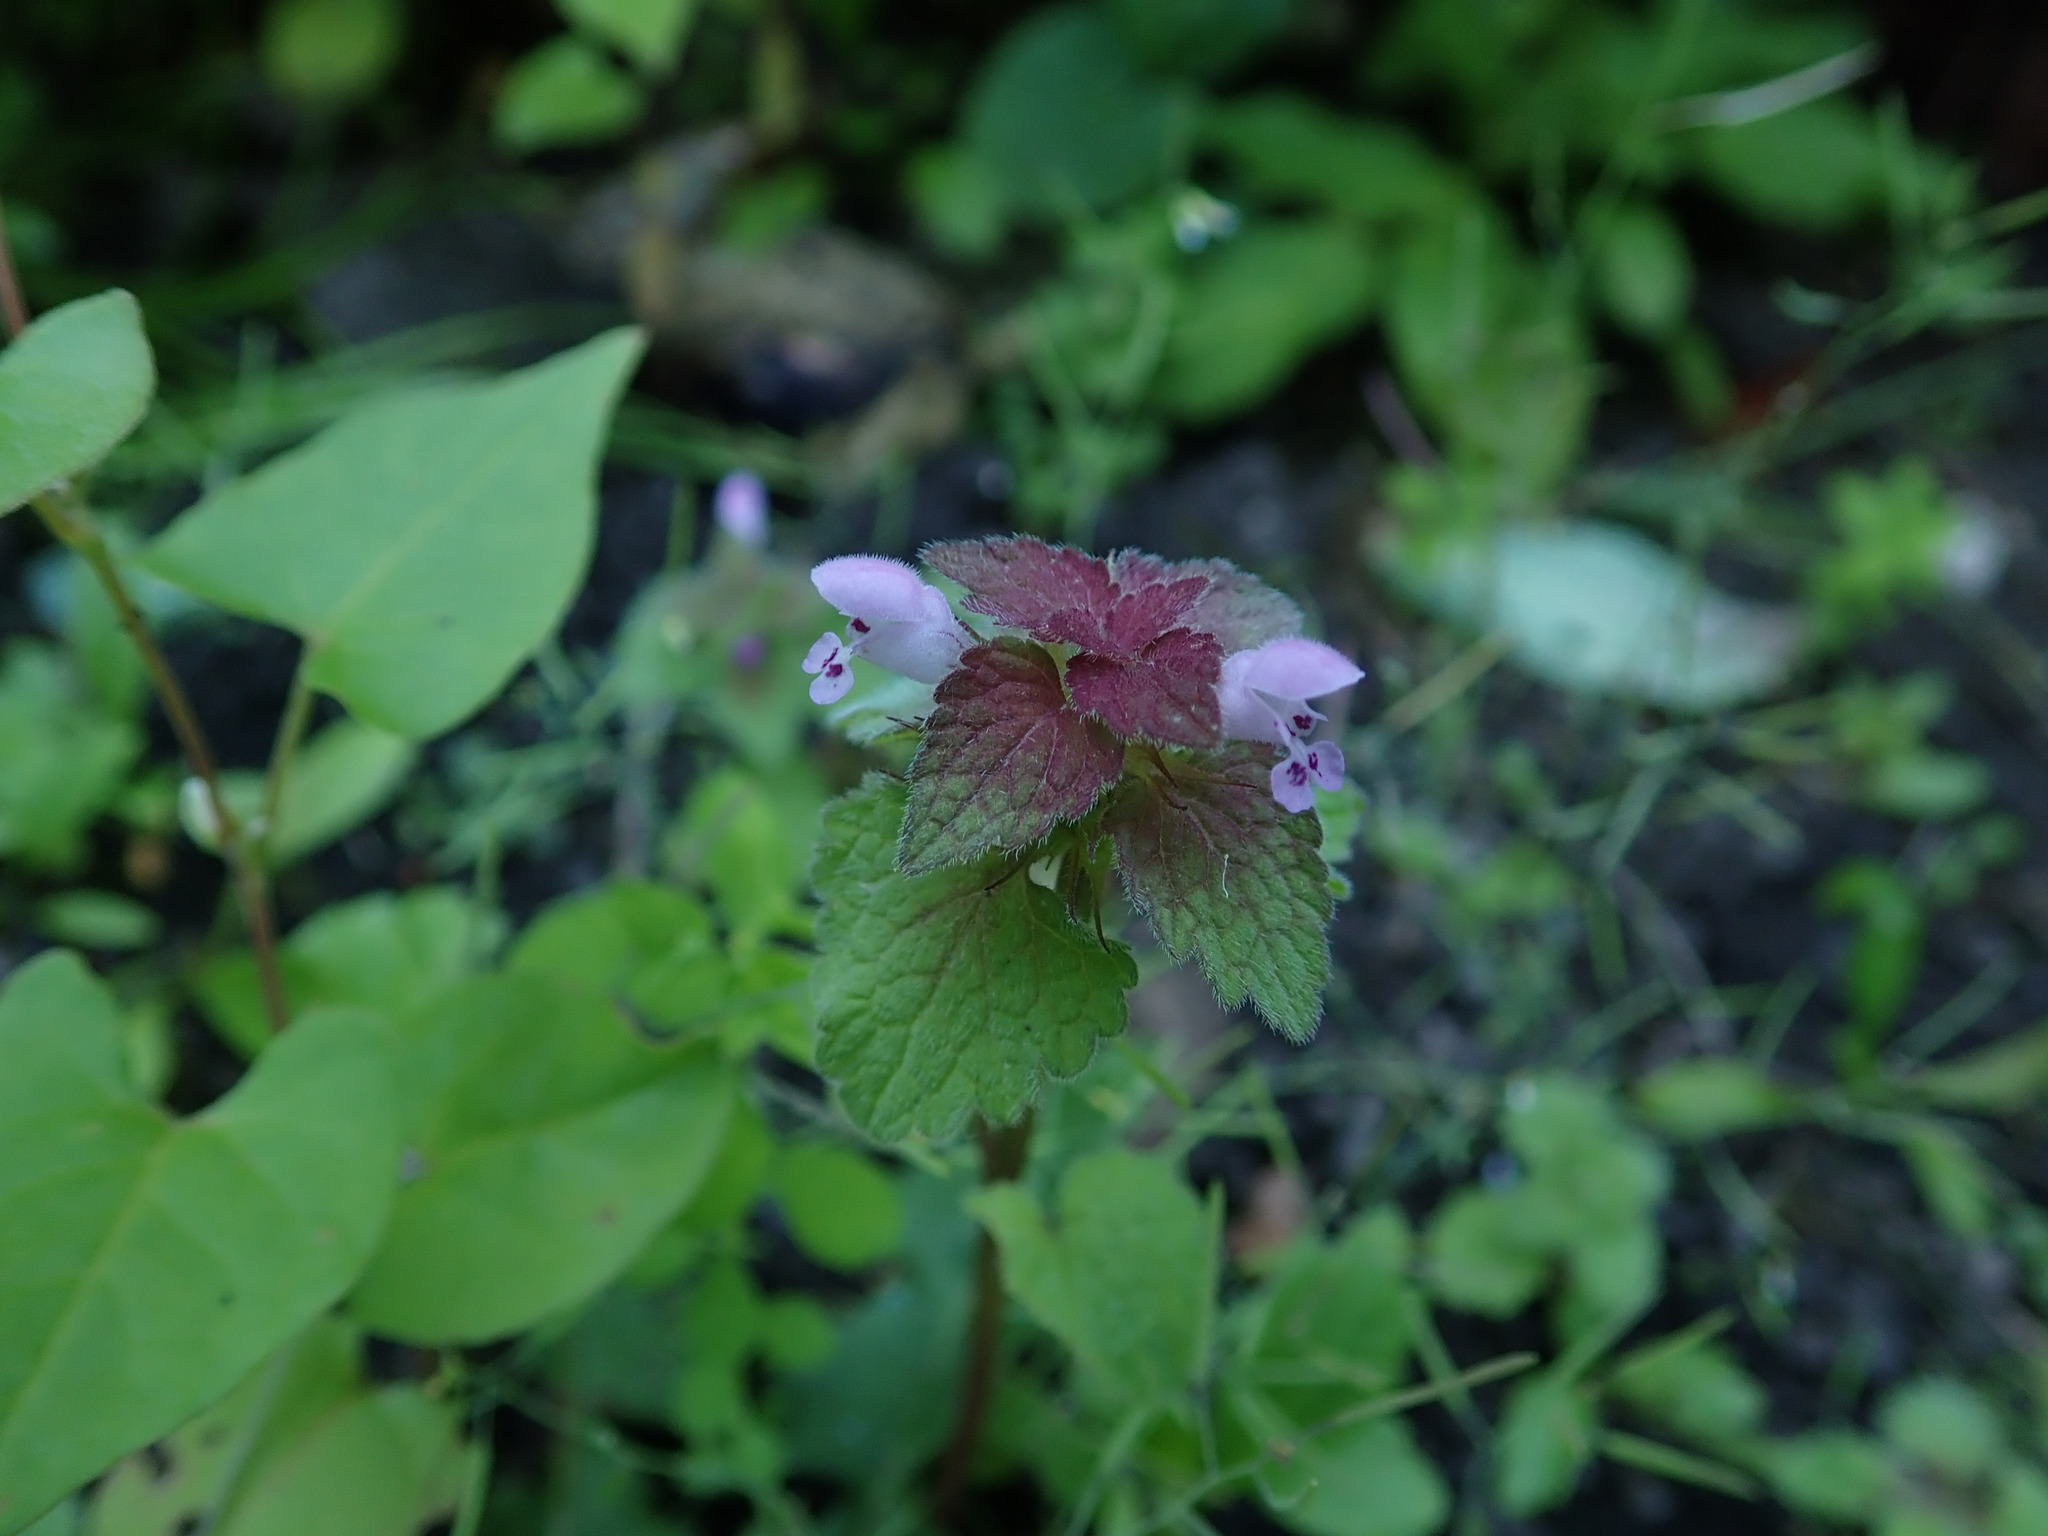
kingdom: Plantae
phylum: Tracheophyta
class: Magnoliopsida
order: Lamiales
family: Lamiaceae
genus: Lamium
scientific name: Lamium purpureum
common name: Red dead-nettle
